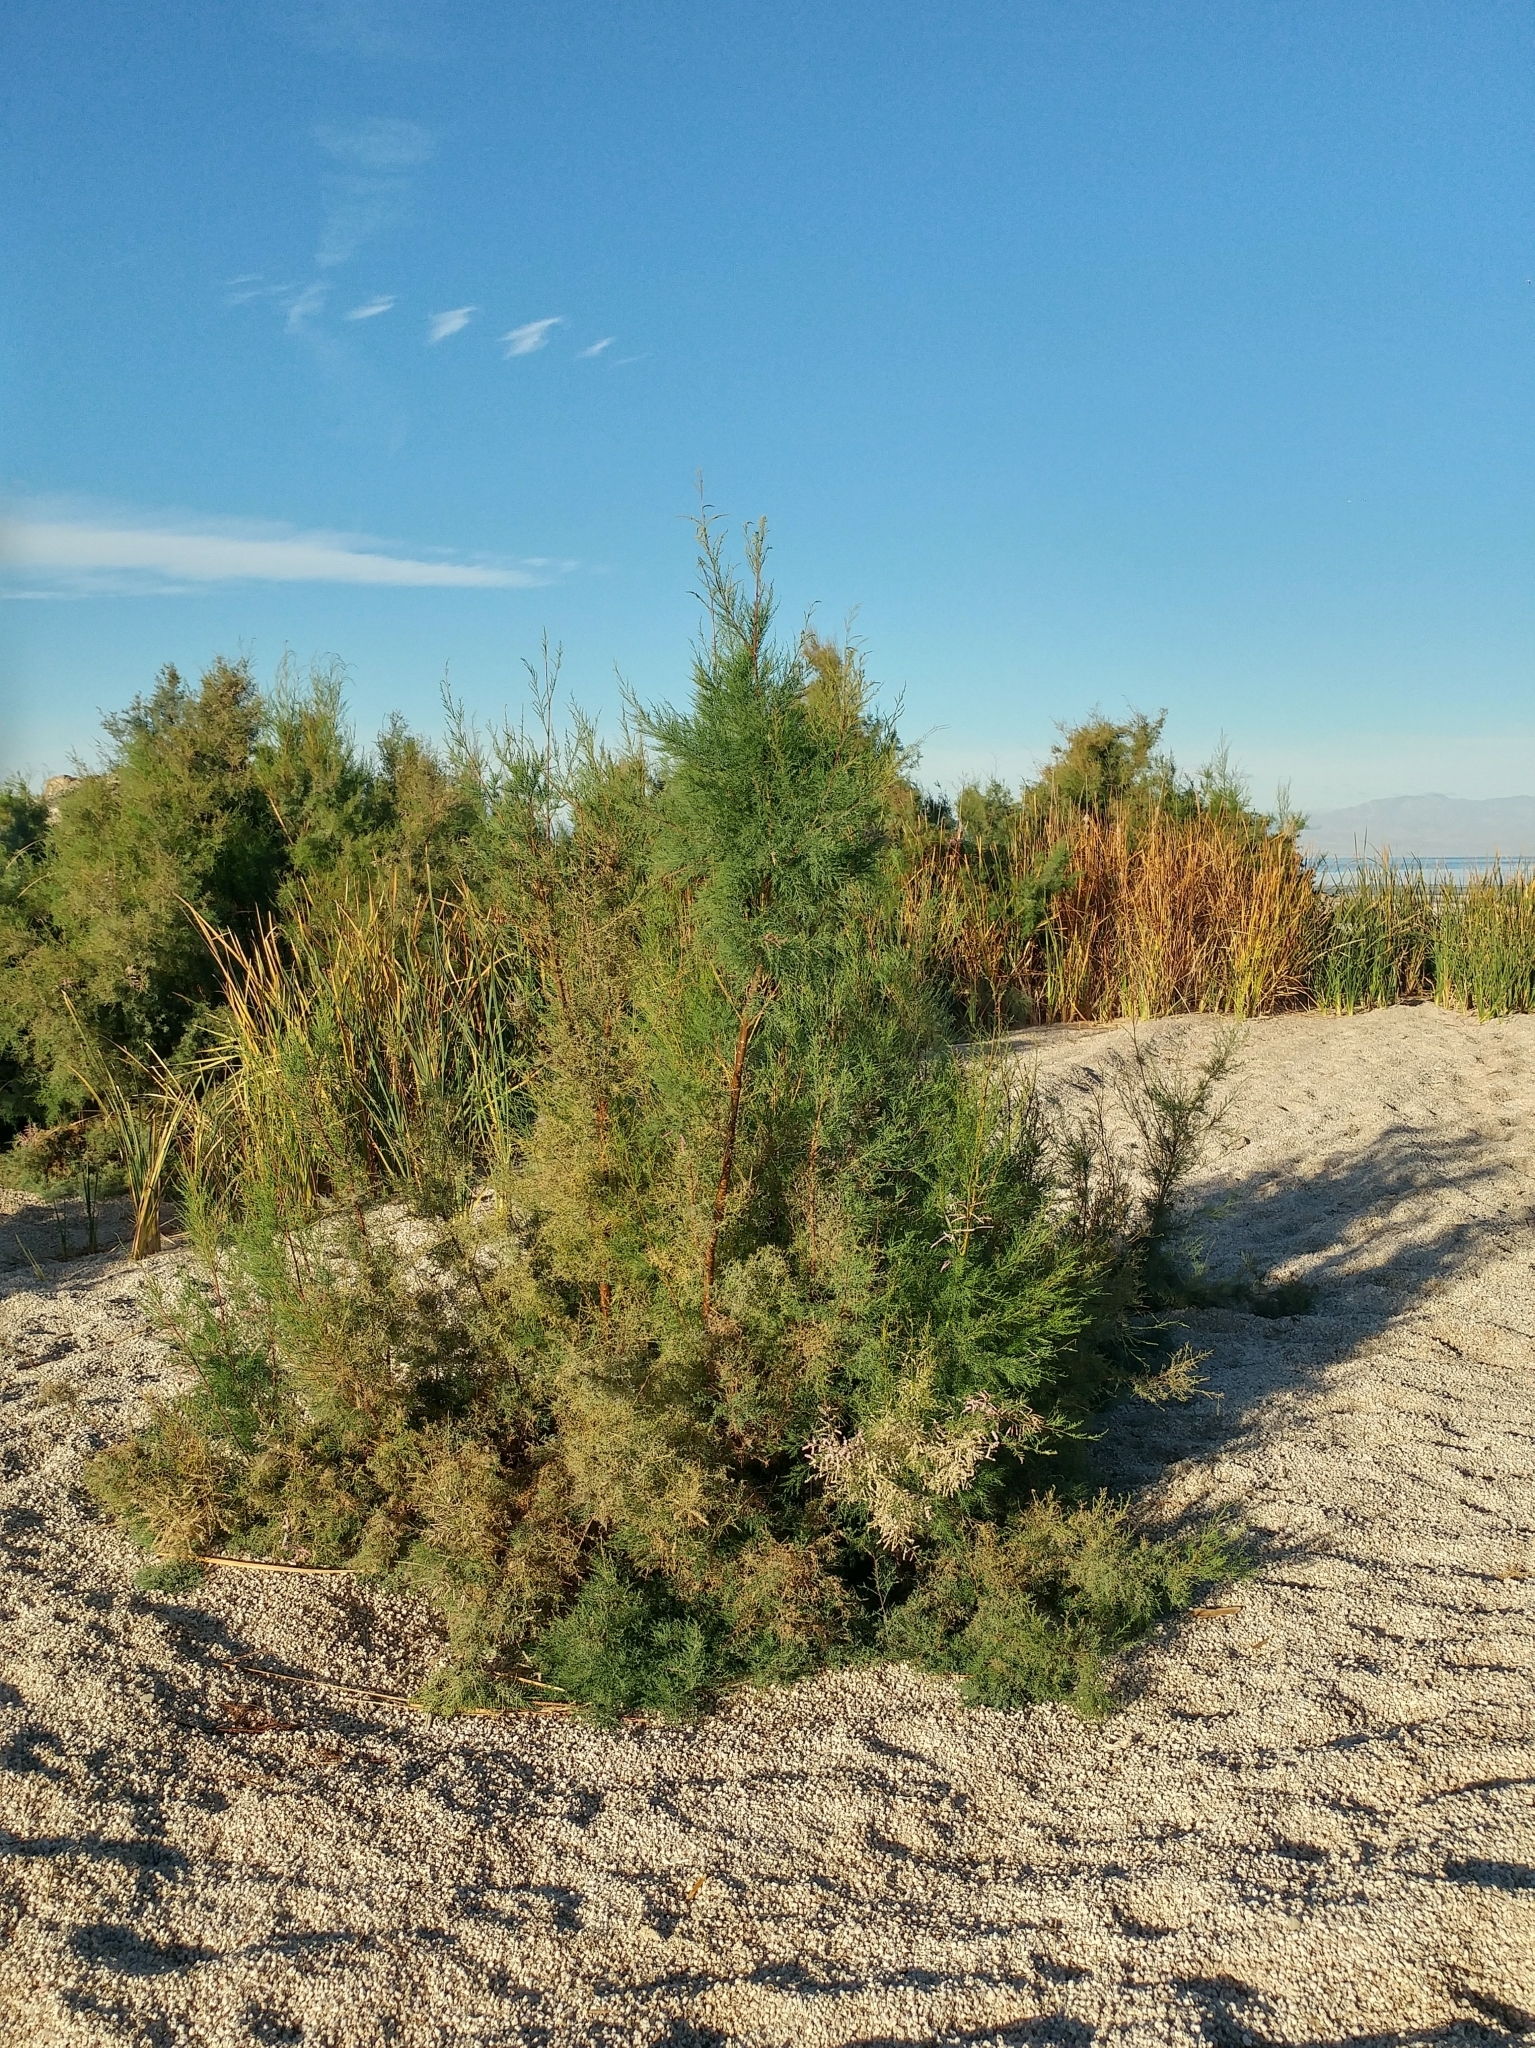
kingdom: Plantae
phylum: Tracheophyta
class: Magnoliopsida
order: Caryophyllales
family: Tamaricaceae
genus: Tamarix
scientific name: Tamarix ramosissima
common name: Pink tamarisk
